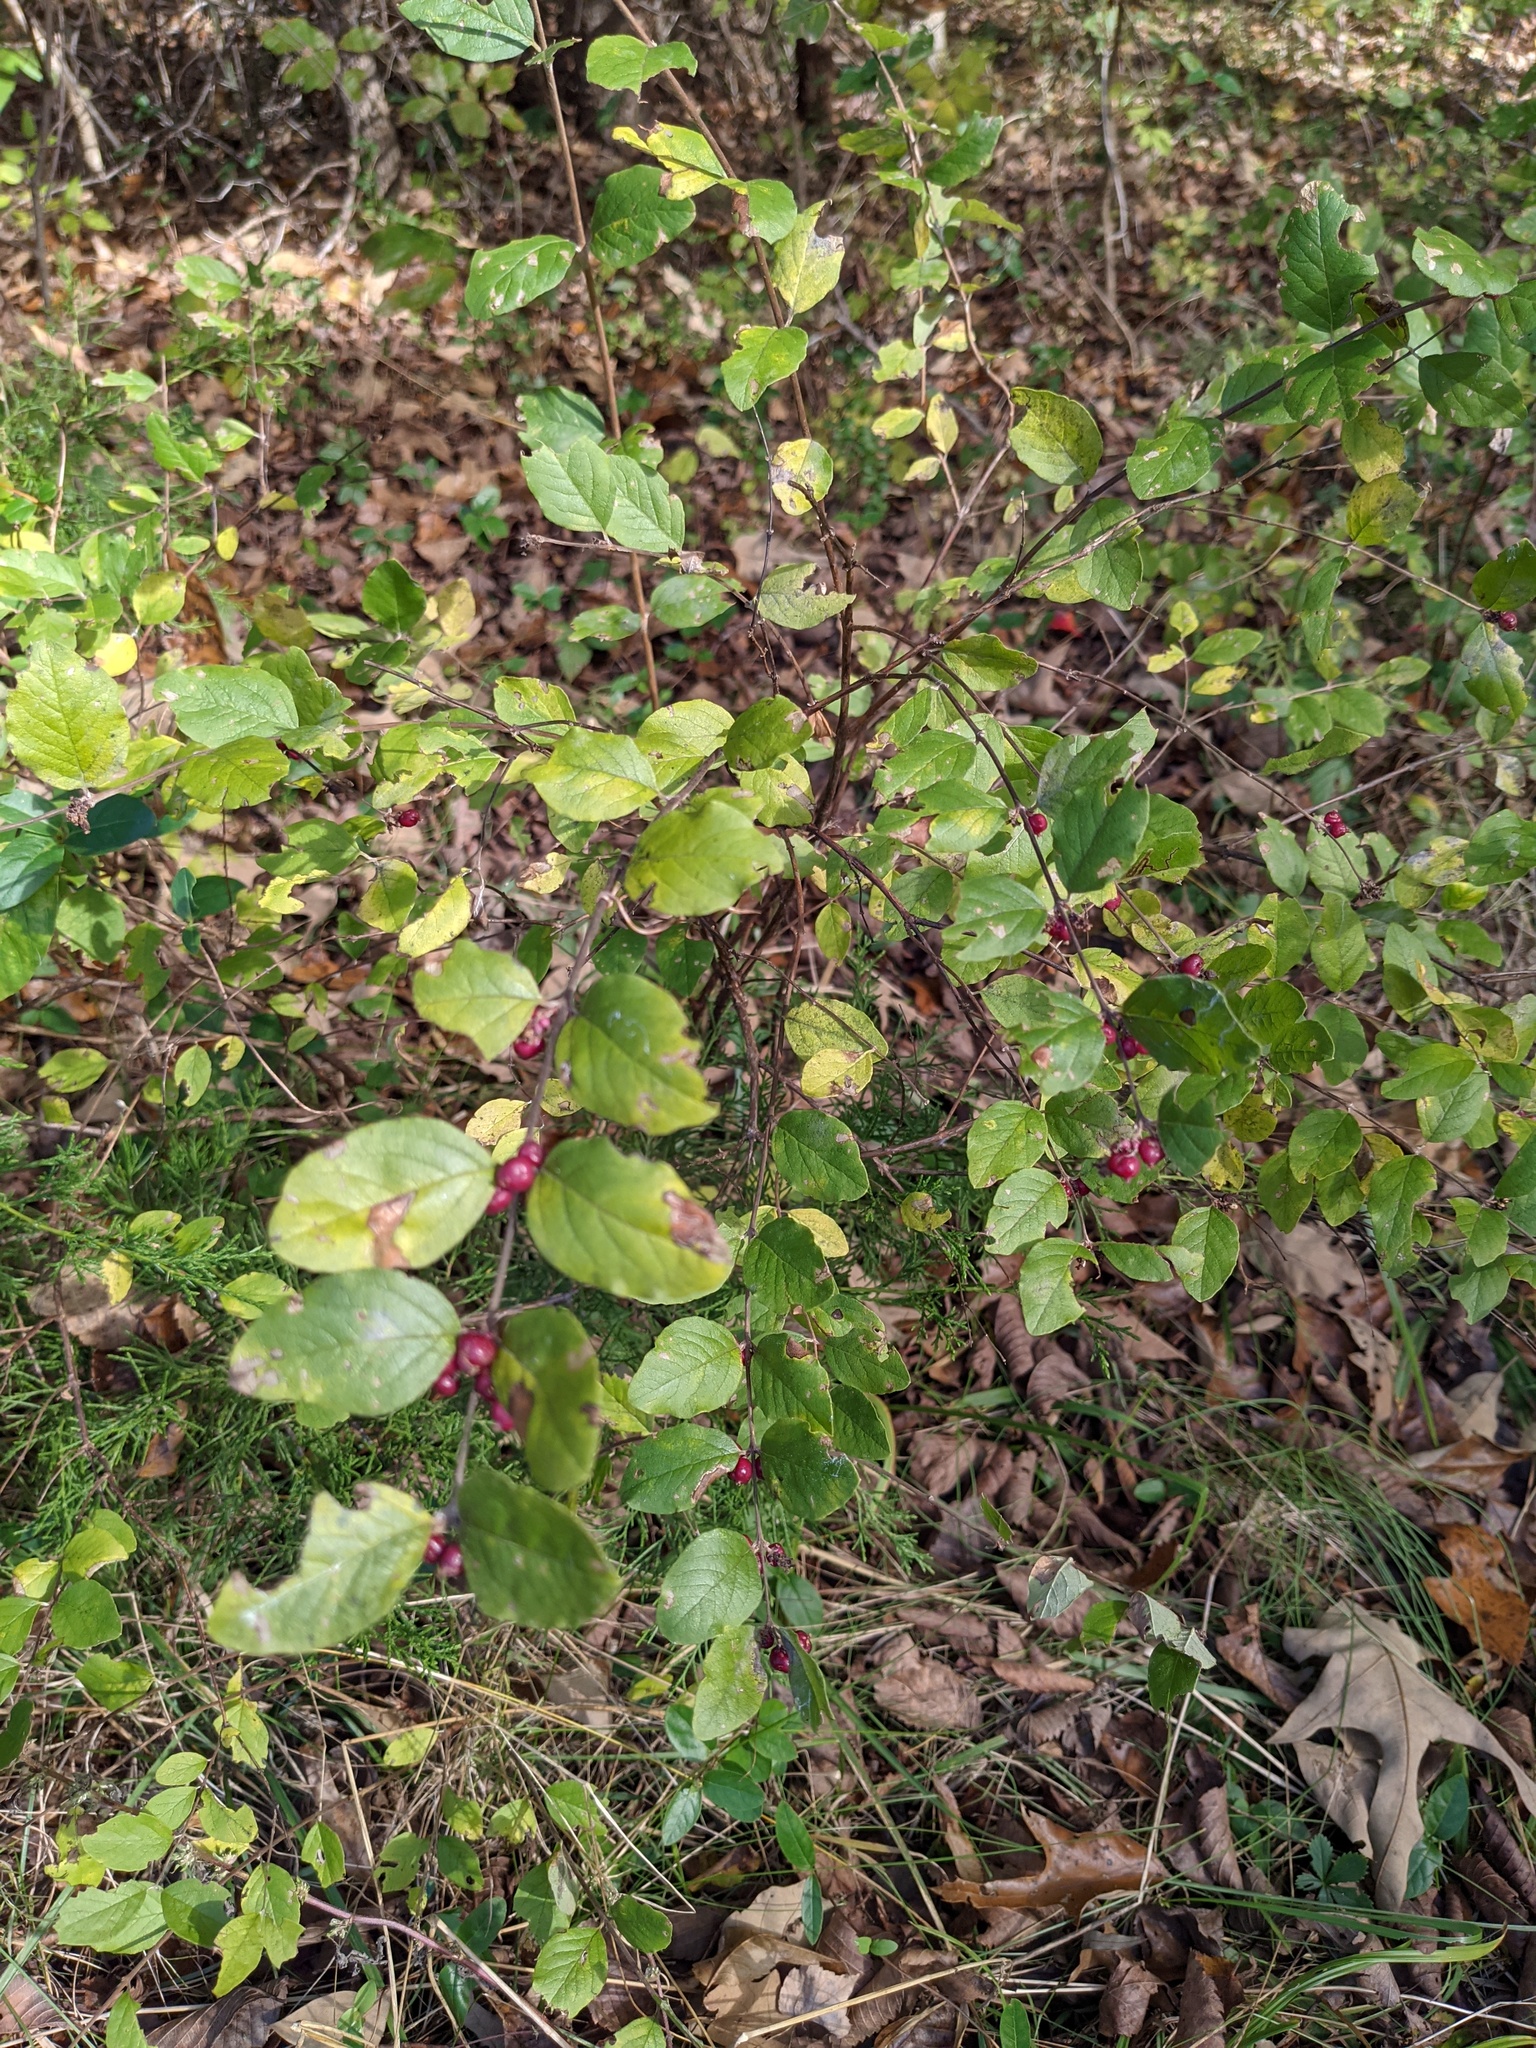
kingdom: Plantae
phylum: Tracheophyta
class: Magnoliopsida
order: Dipsacales
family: Caprifoliaceae
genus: Symphoricarpos
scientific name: Symphoricarpos orbiculatus
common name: Coralberry
